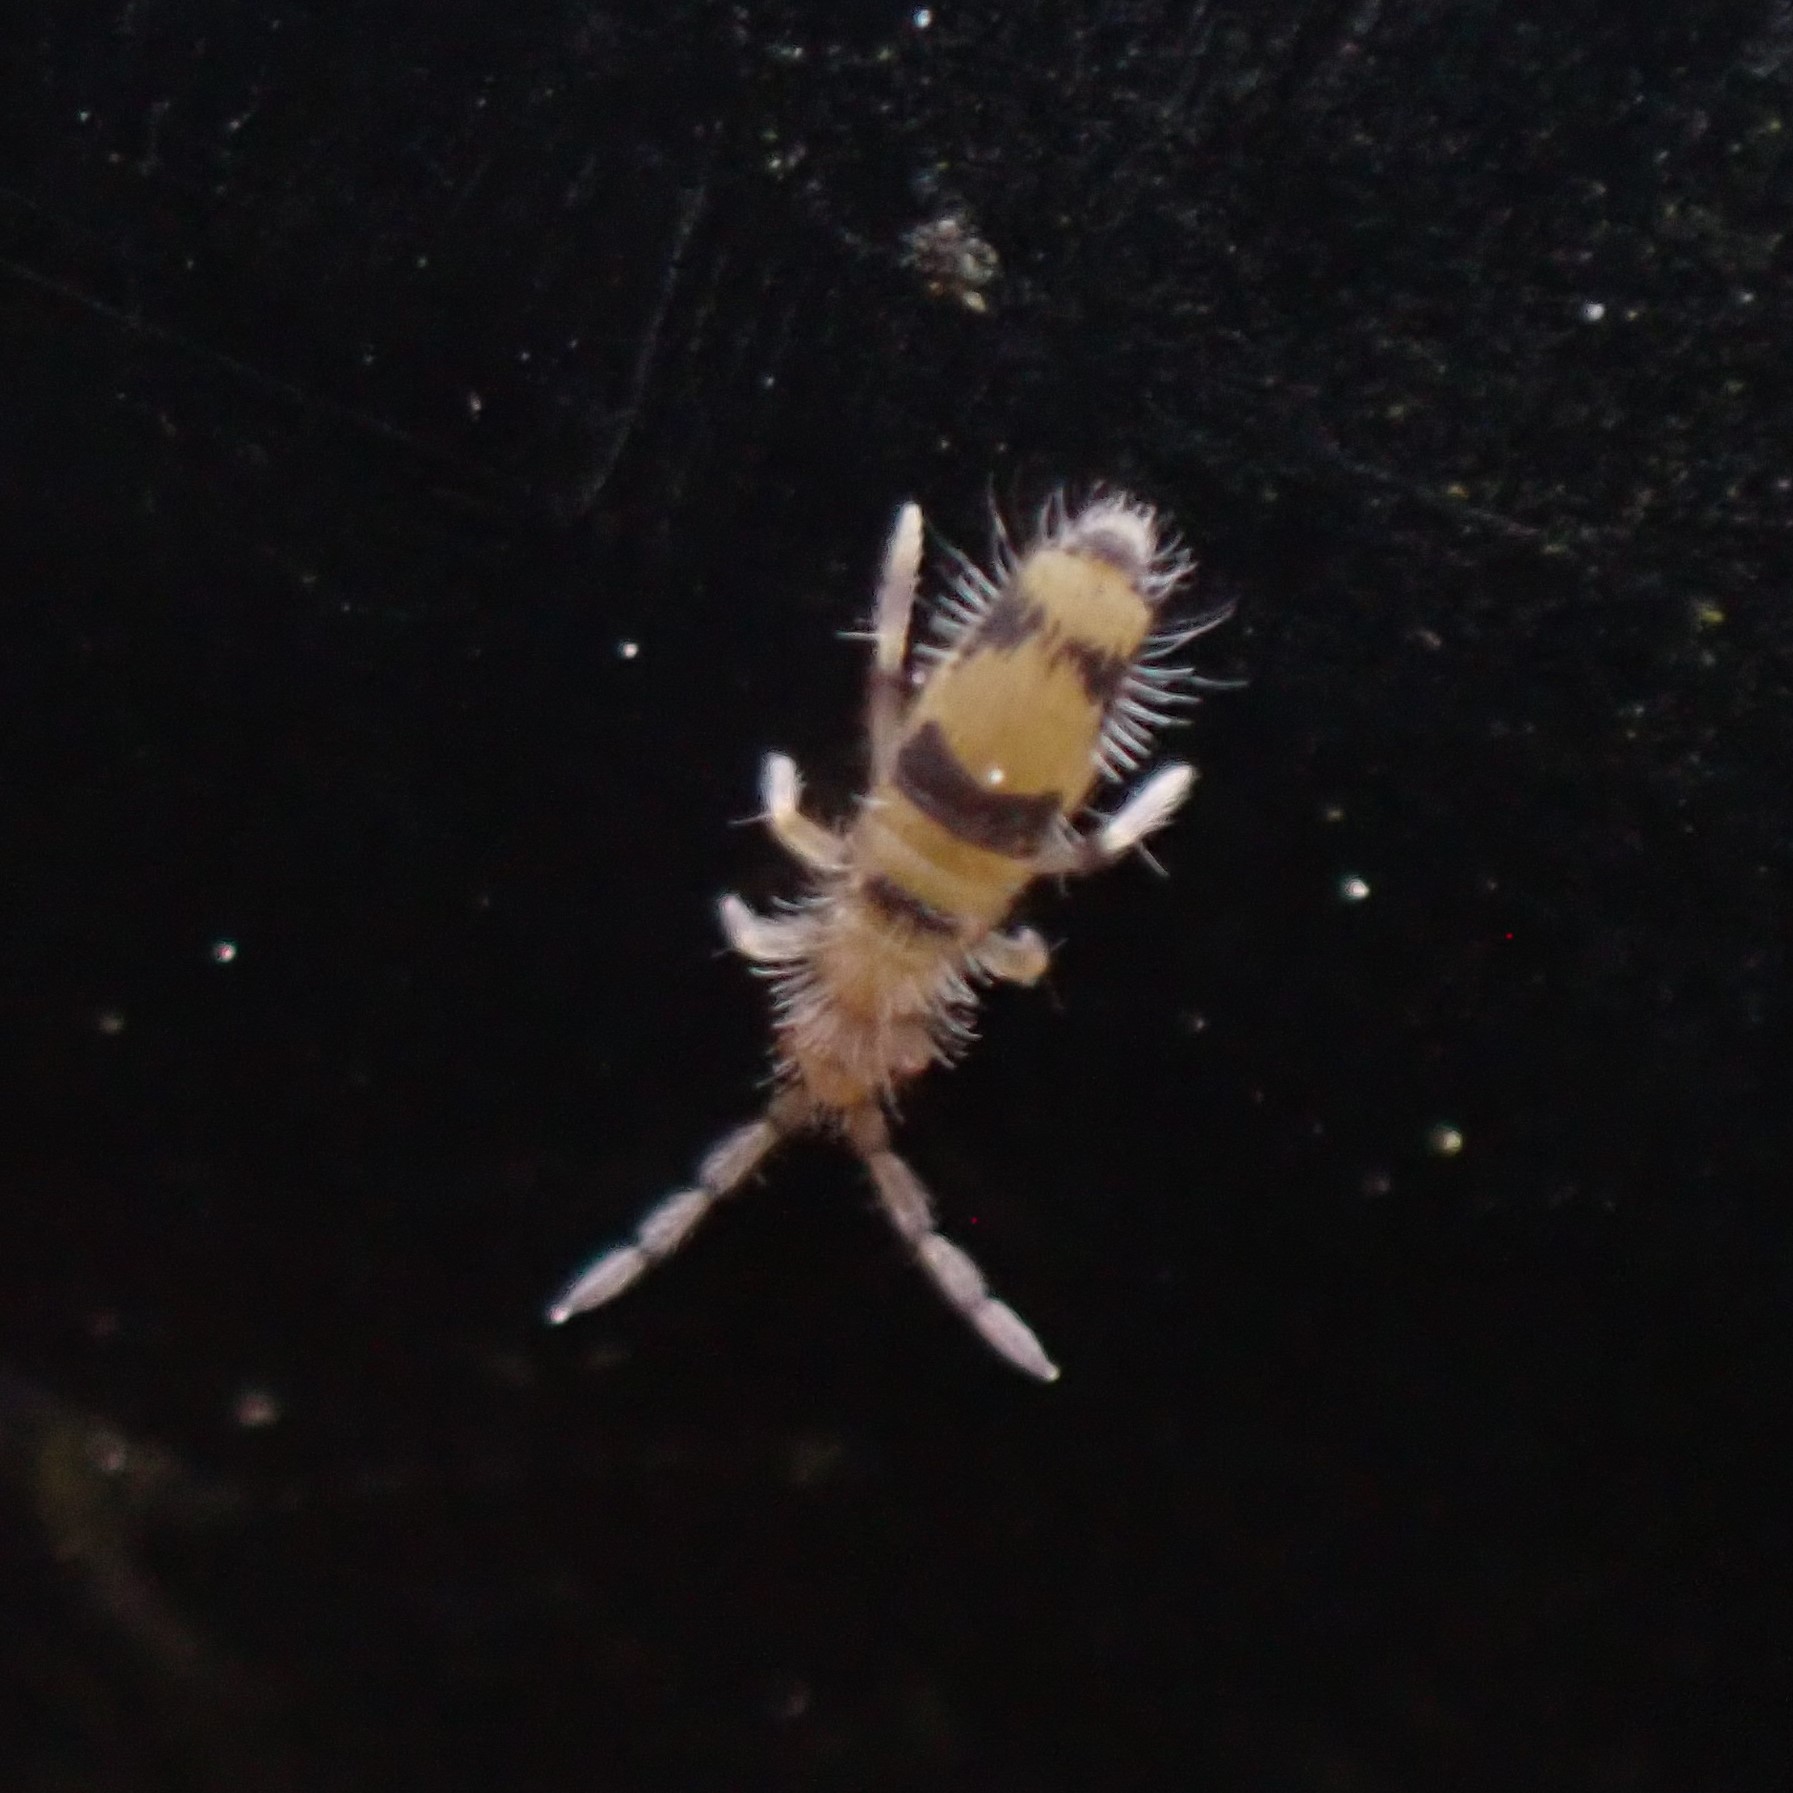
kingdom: Animalia
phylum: Arthropoda
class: Collembola
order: Entomobryomorpha
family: Entomobryidae
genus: Entomobrya
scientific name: Entomobrya triangularis
